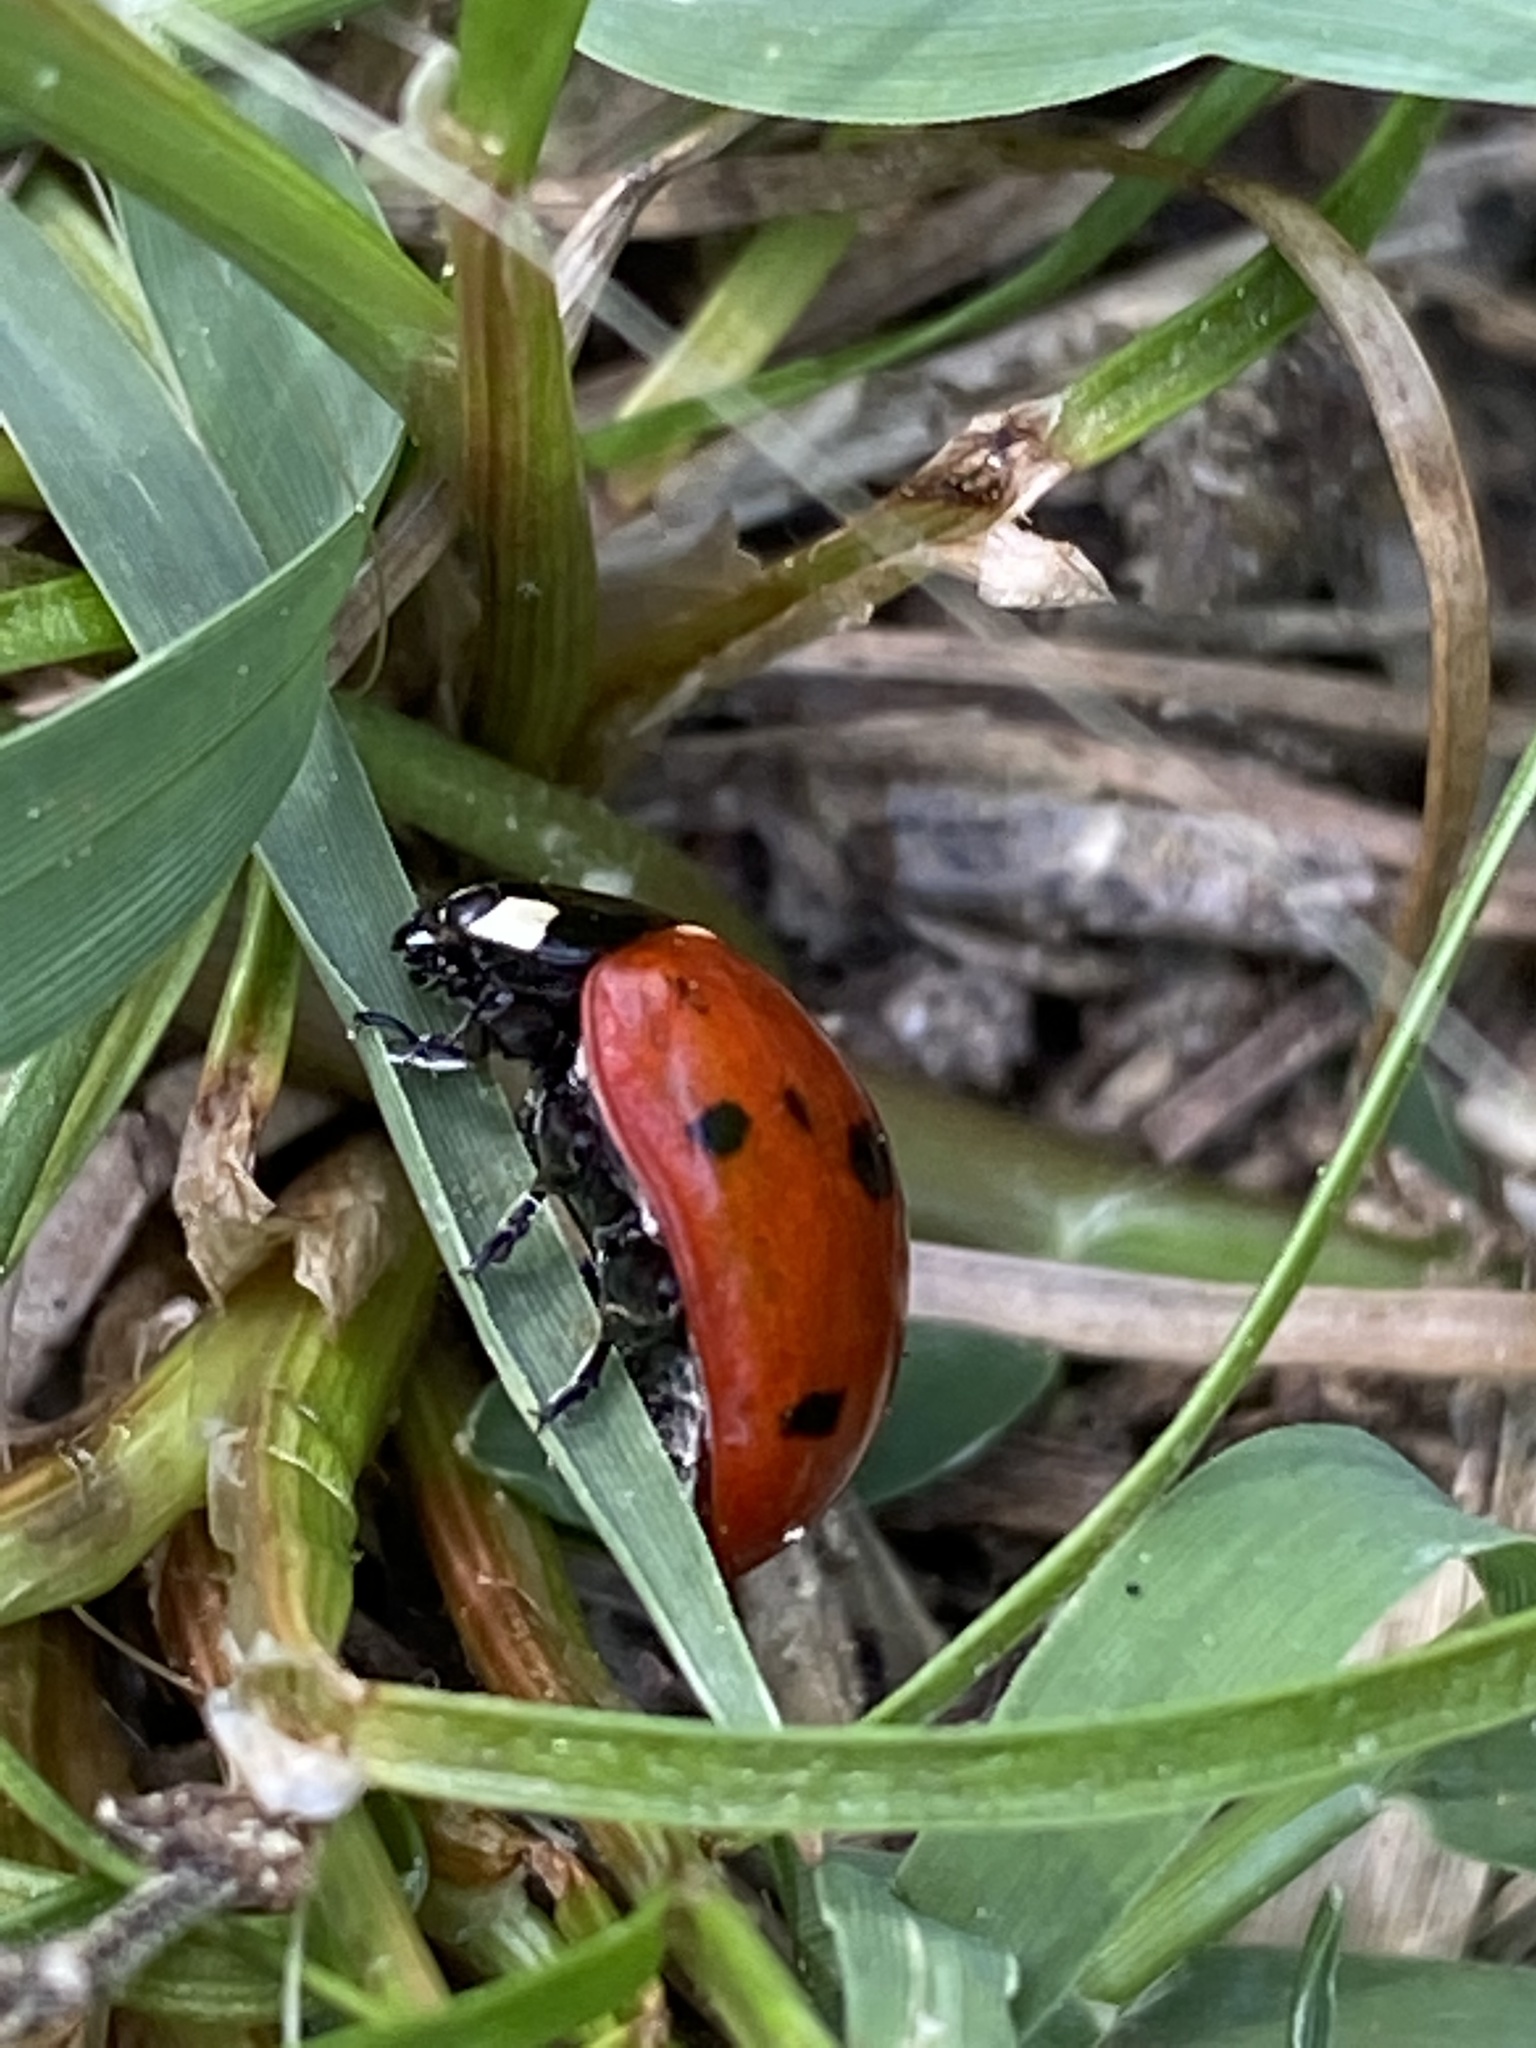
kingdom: Animalia
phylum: Arthropoda
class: Insecta
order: Coleoptera
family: Coccinellidae
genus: Coccinella
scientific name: Coccinella septempunctata
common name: Sevenspotted lady beetle
